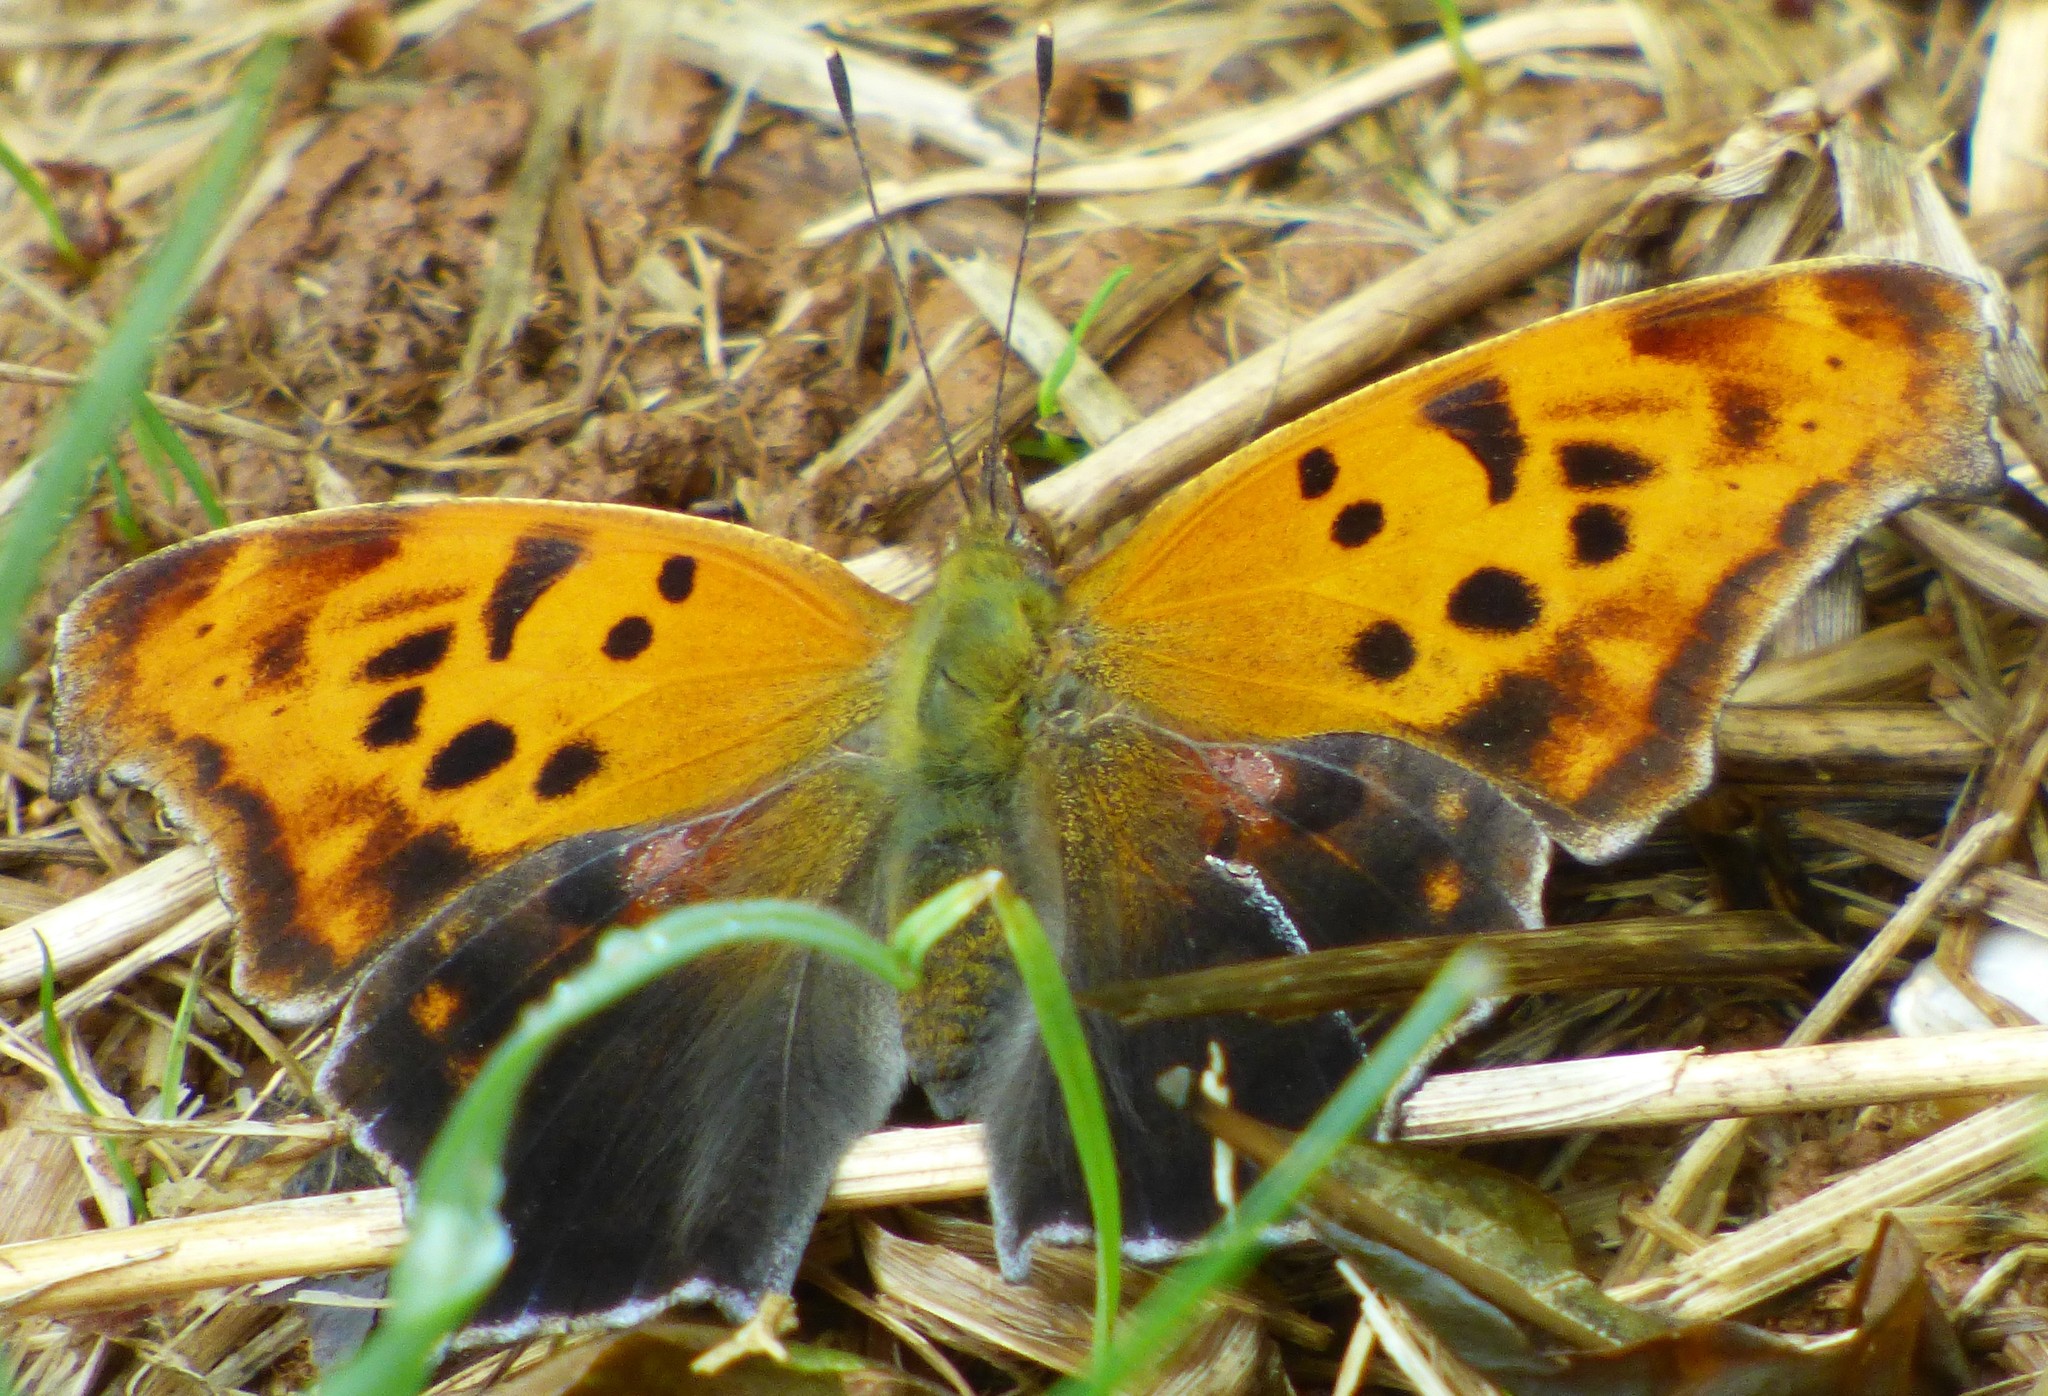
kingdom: Animalia
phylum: Arthropoda
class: Insecta
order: Lepidoptera
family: Nymphalidae
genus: Polygonia
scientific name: Polygonia interrogationis
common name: Question mark
